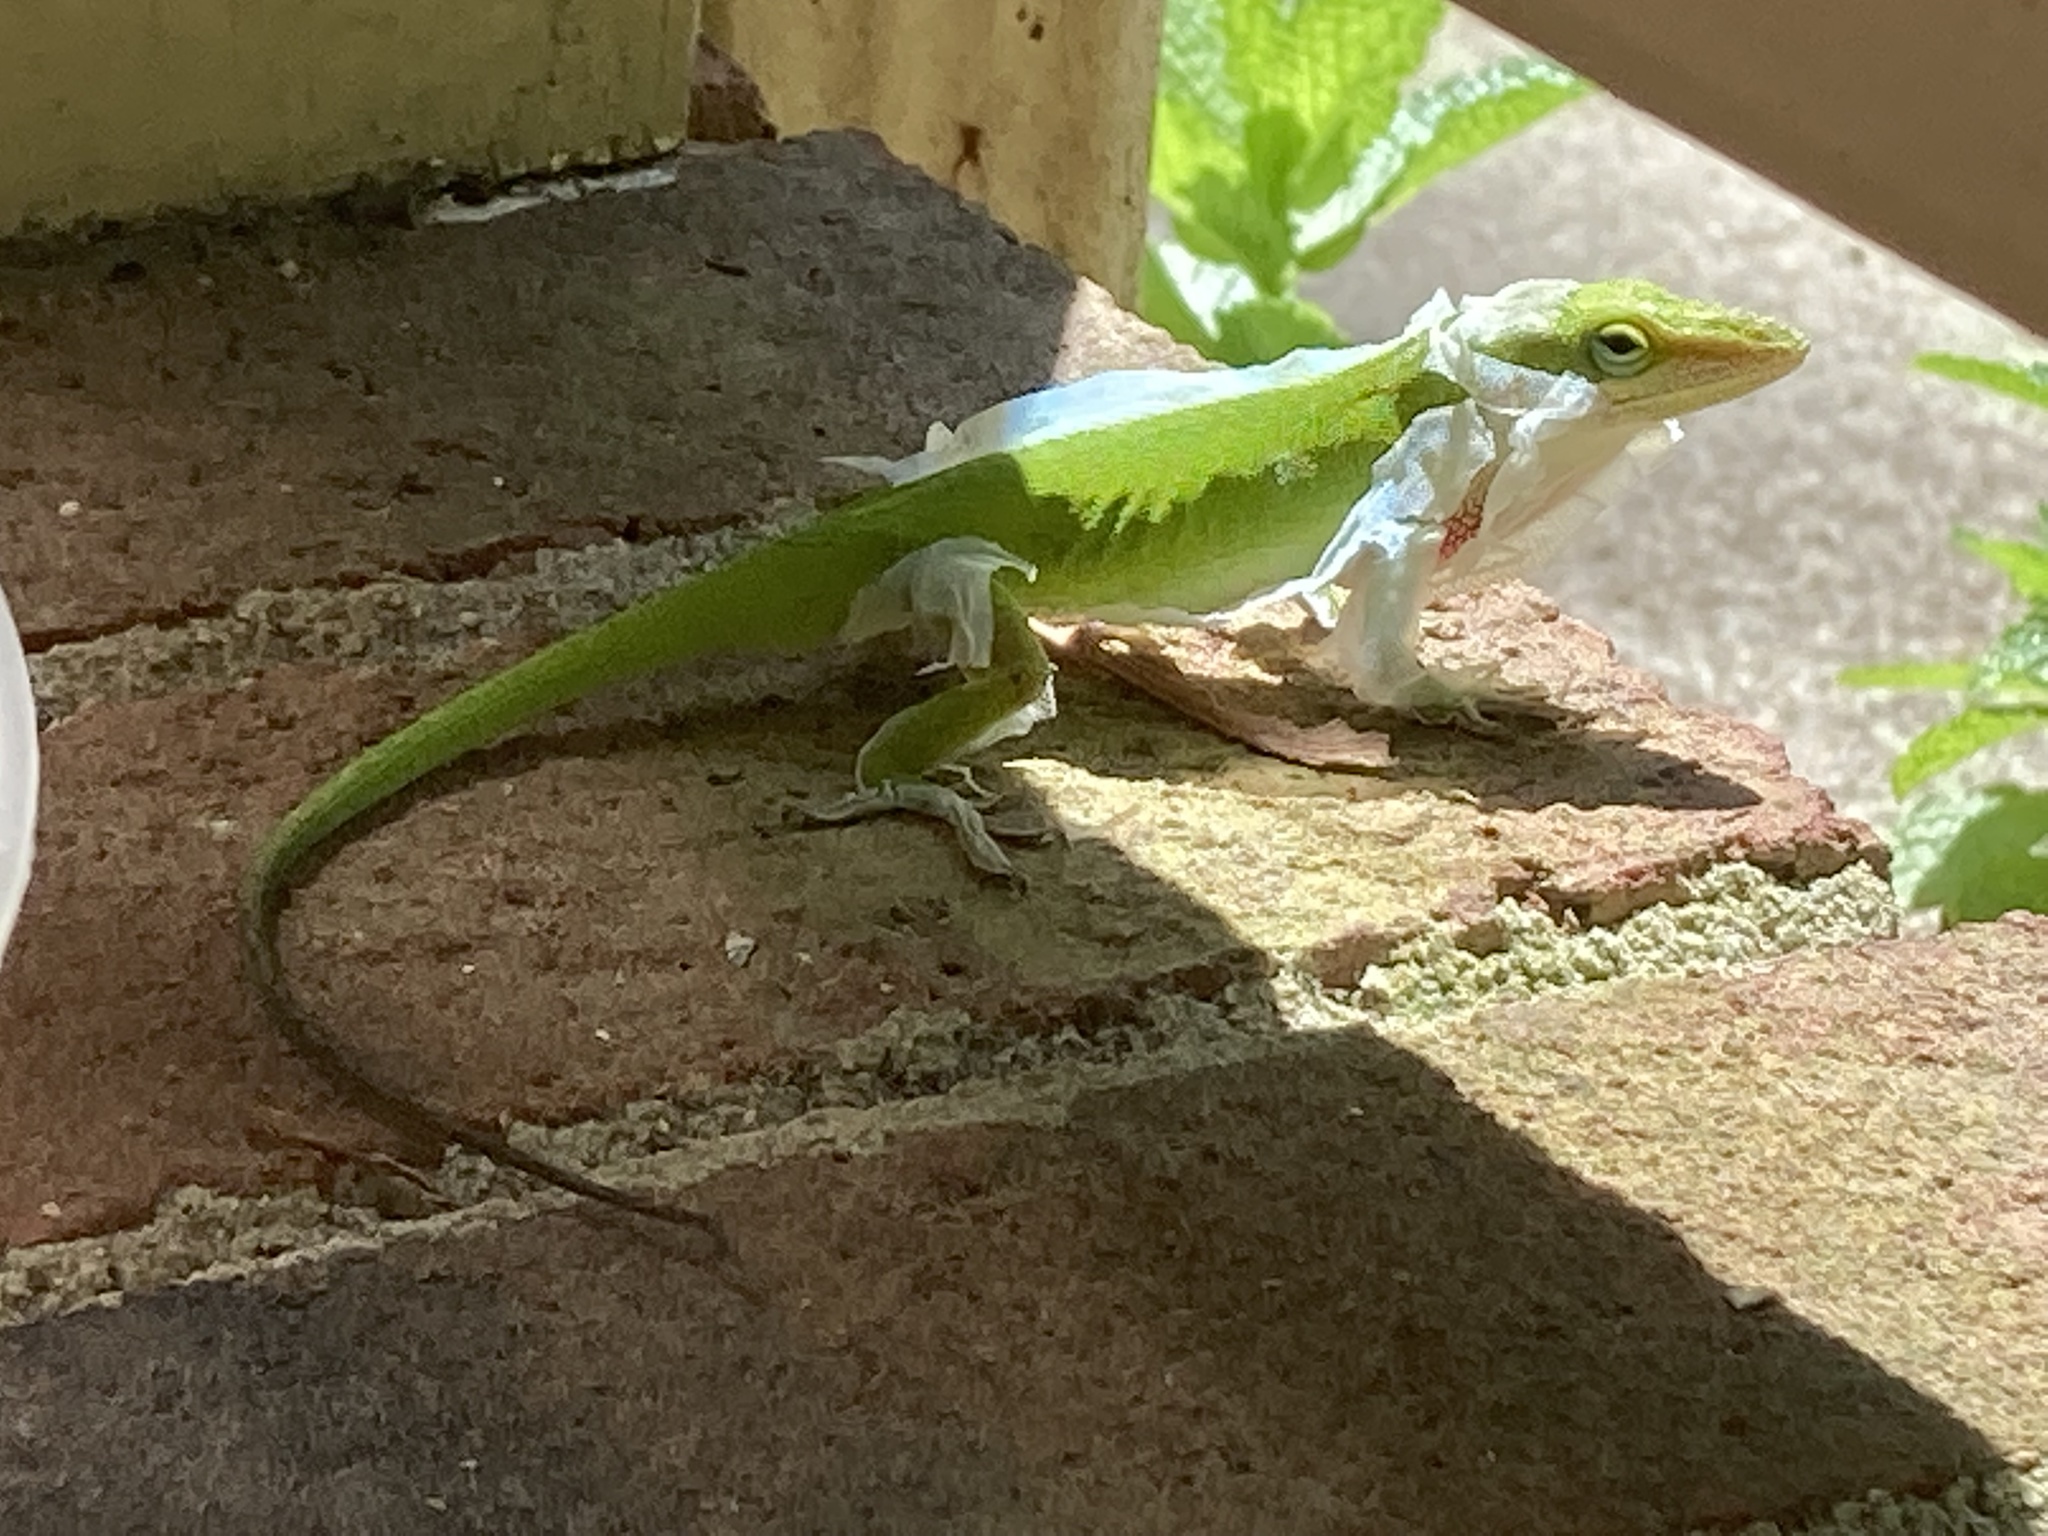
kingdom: Animalia
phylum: Chordata
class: Squamata
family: Dactyloidae
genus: Anolis
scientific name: Anolis carolinensis
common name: Green anole
